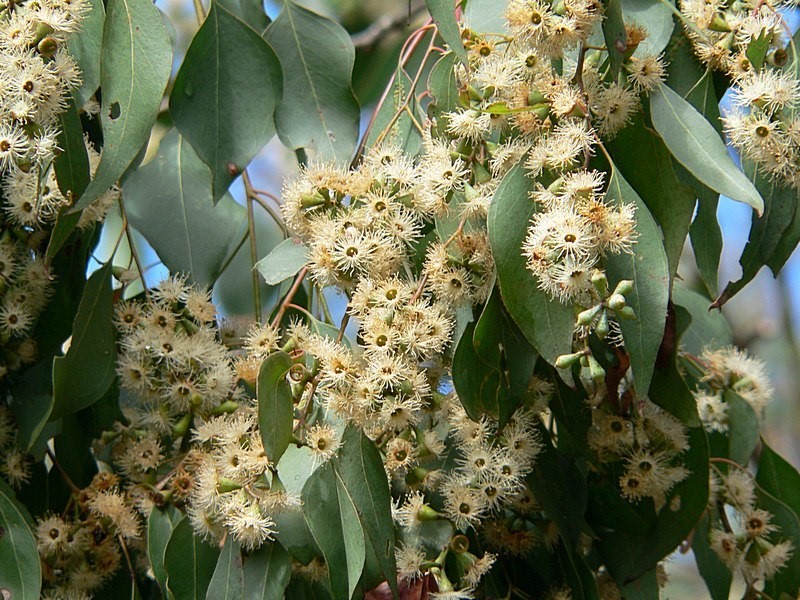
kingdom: Plantae
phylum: Tracheophyta
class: Magnoliopsida
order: Myrtales
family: Myrtaceae
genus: Eucalyptus
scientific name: Eucalyptus baueriana
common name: Round-leaf-box
